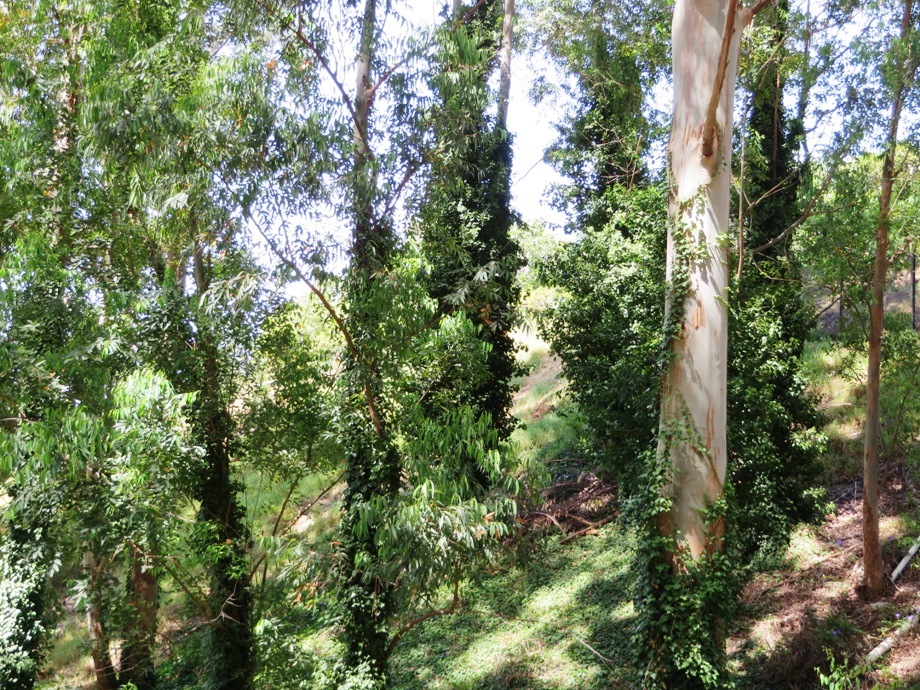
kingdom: Plantae
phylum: Tracheophyta
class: Magnoliopsida
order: Apiales
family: Araliaceae
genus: Hedera
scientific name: Hedera helix
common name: Ivy
